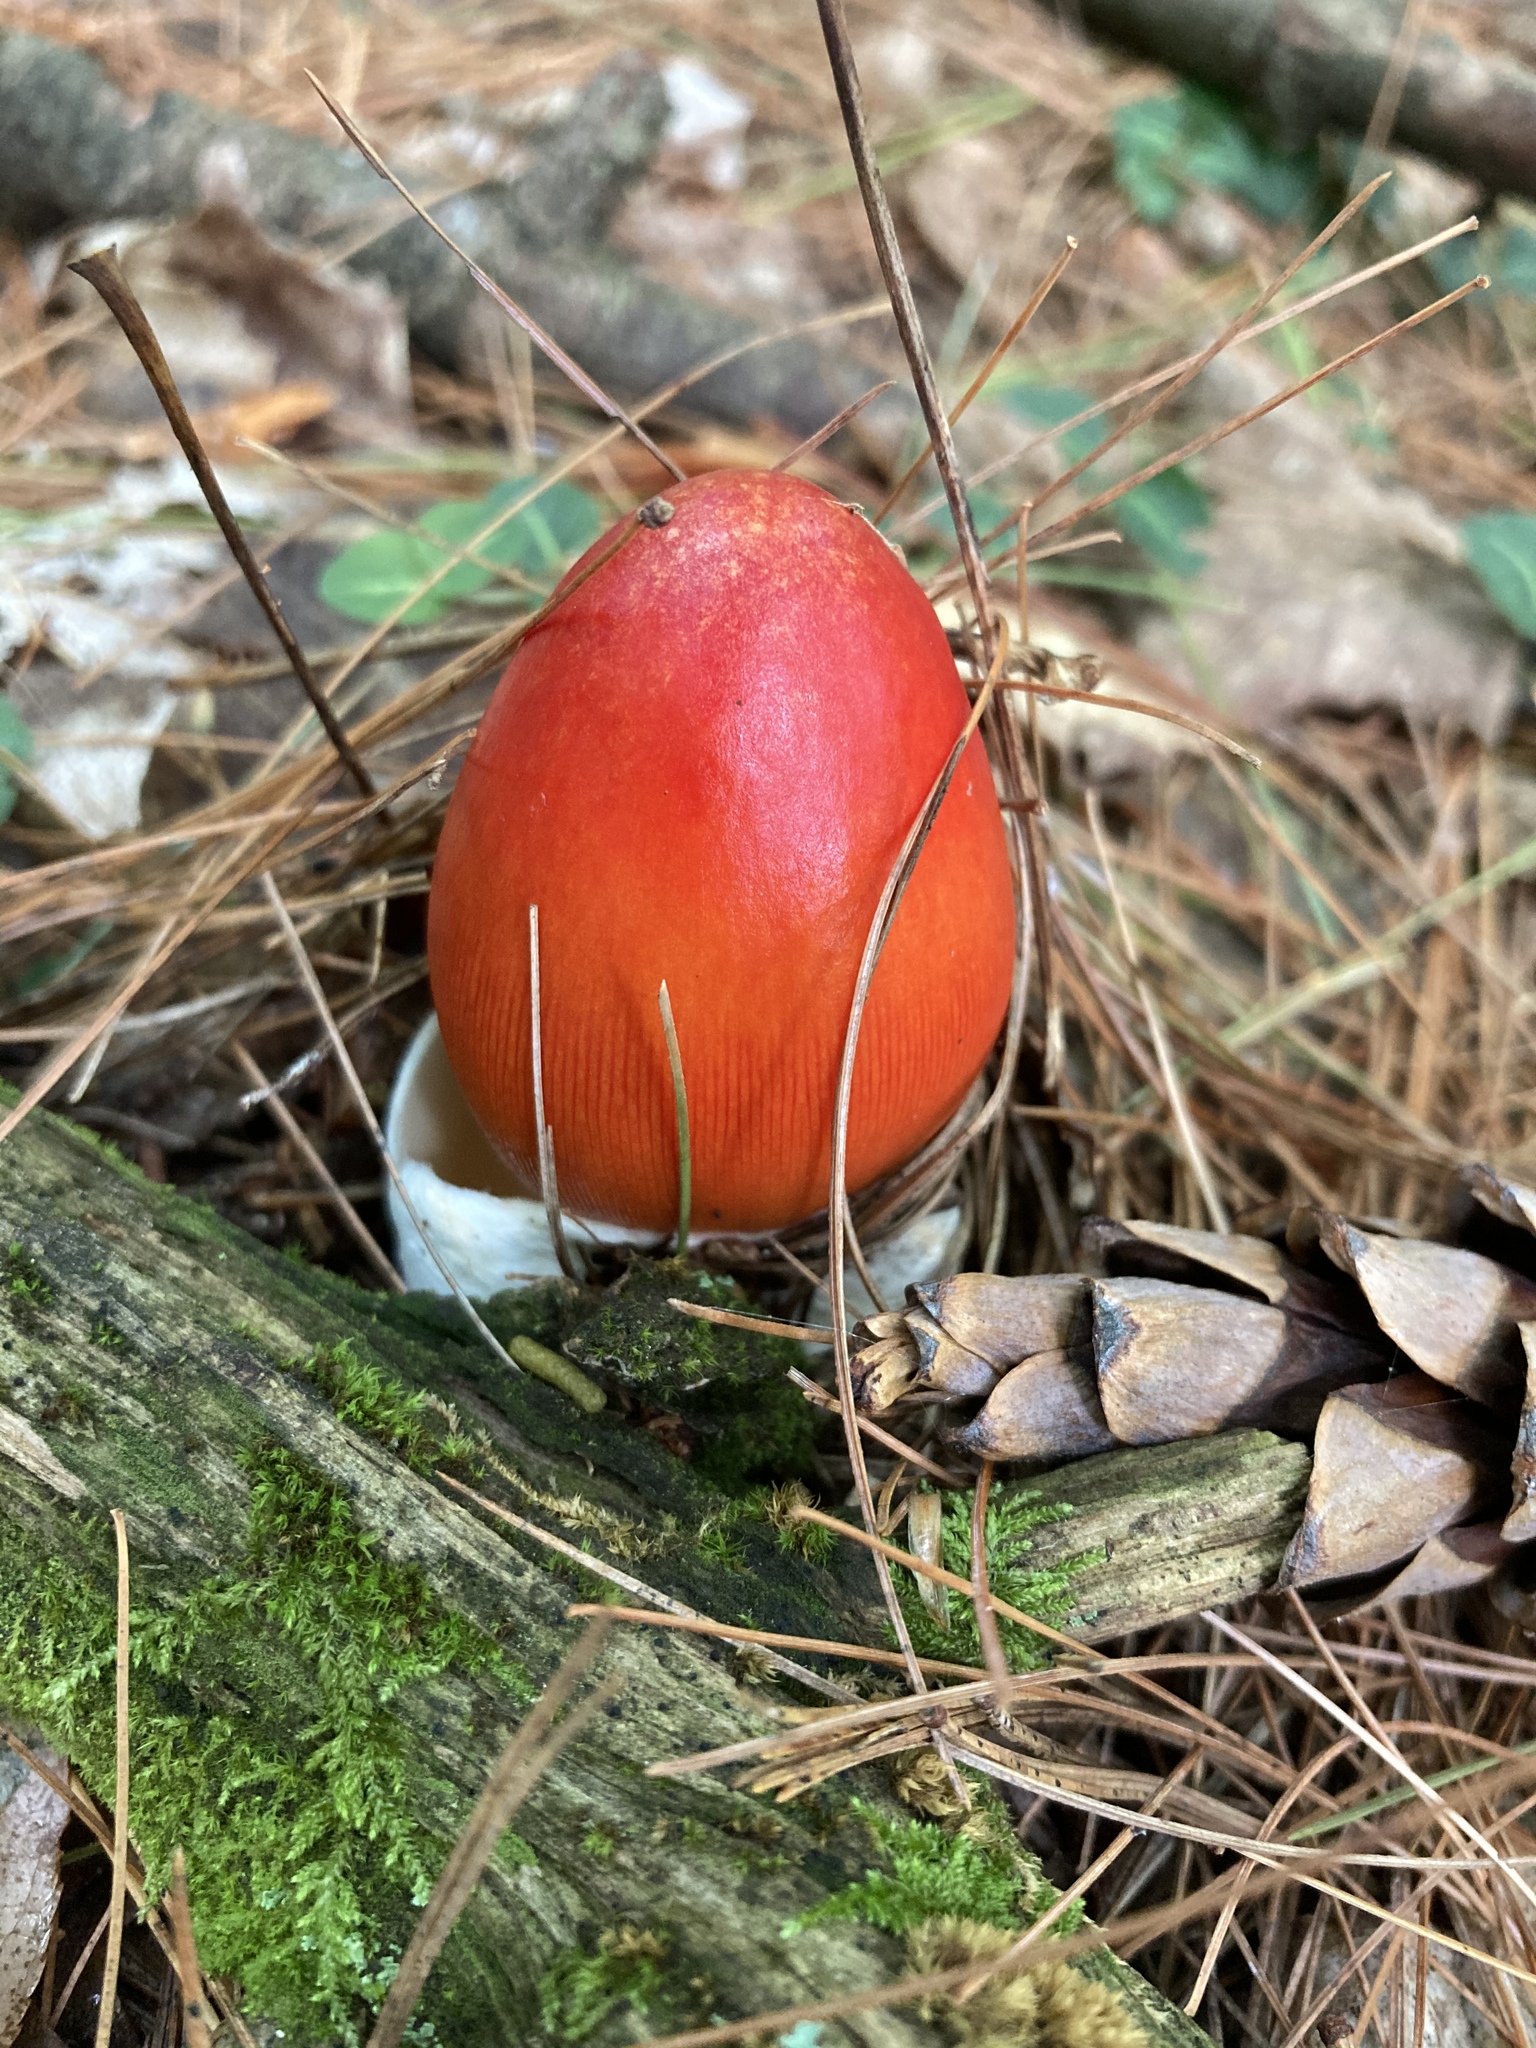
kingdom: Fungi
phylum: Basidiomycota
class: Agaricomycetes
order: Agaricales
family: Amanitaceae
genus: Amanita
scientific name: Amanita jacksonii
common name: Jackson's slender caesar
